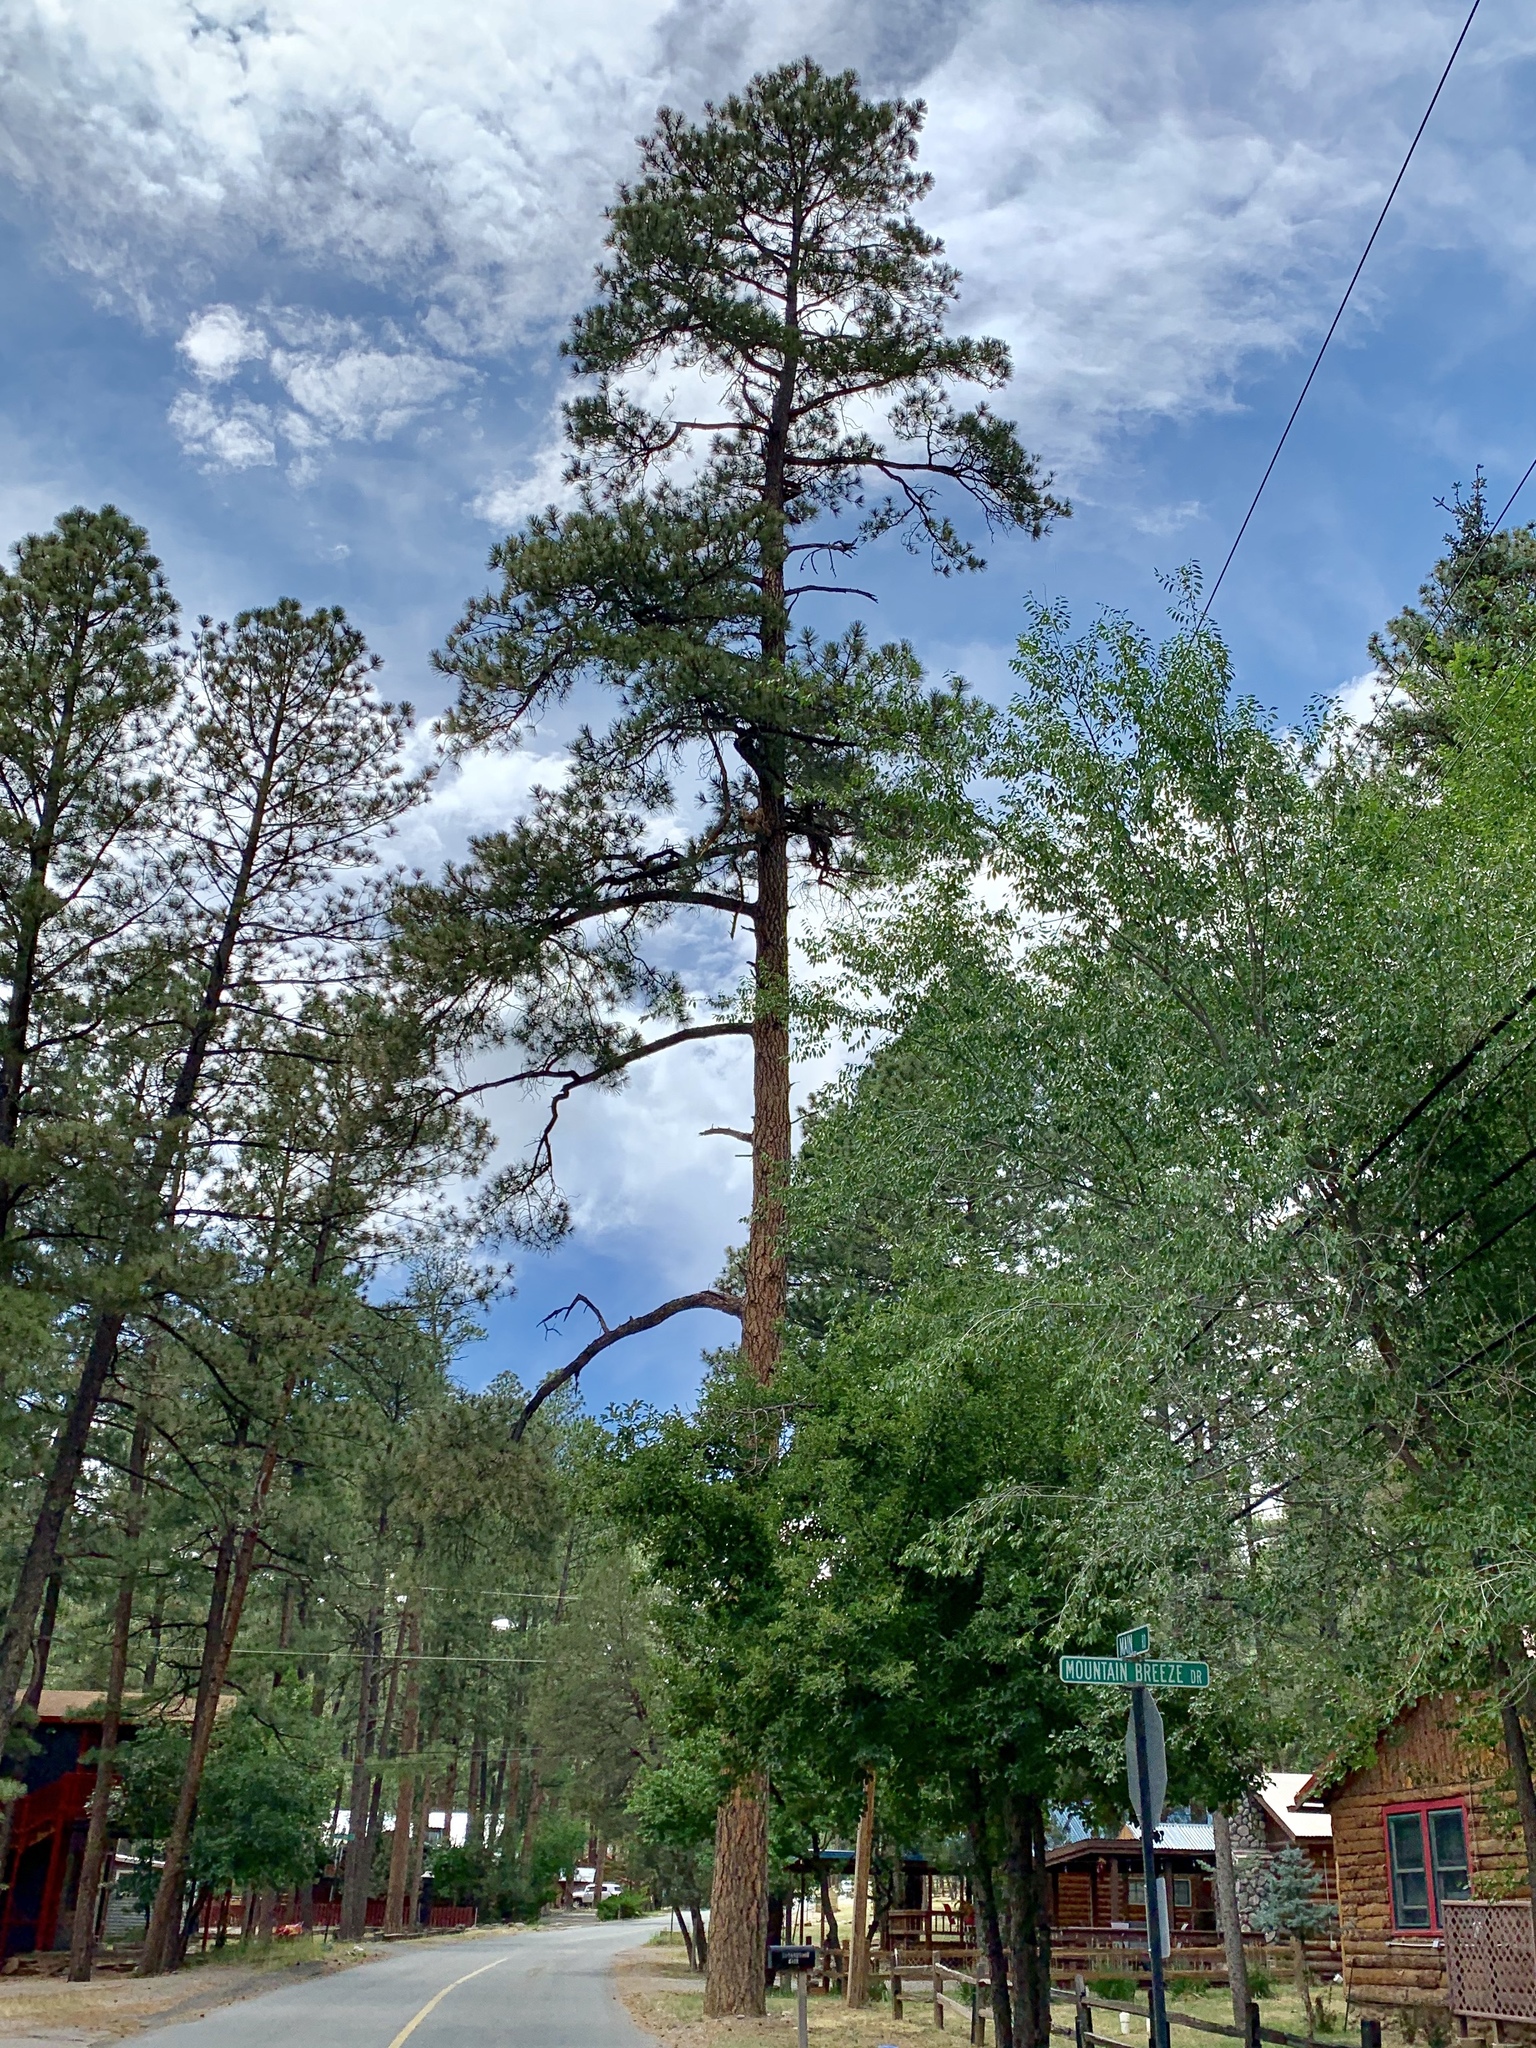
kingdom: Plantae
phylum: Tracheophyta
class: Pinopsida
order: Pinales
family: Pinaceae
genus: Pinus
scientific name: Pinus ponderosa
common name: Western yellow-pine
